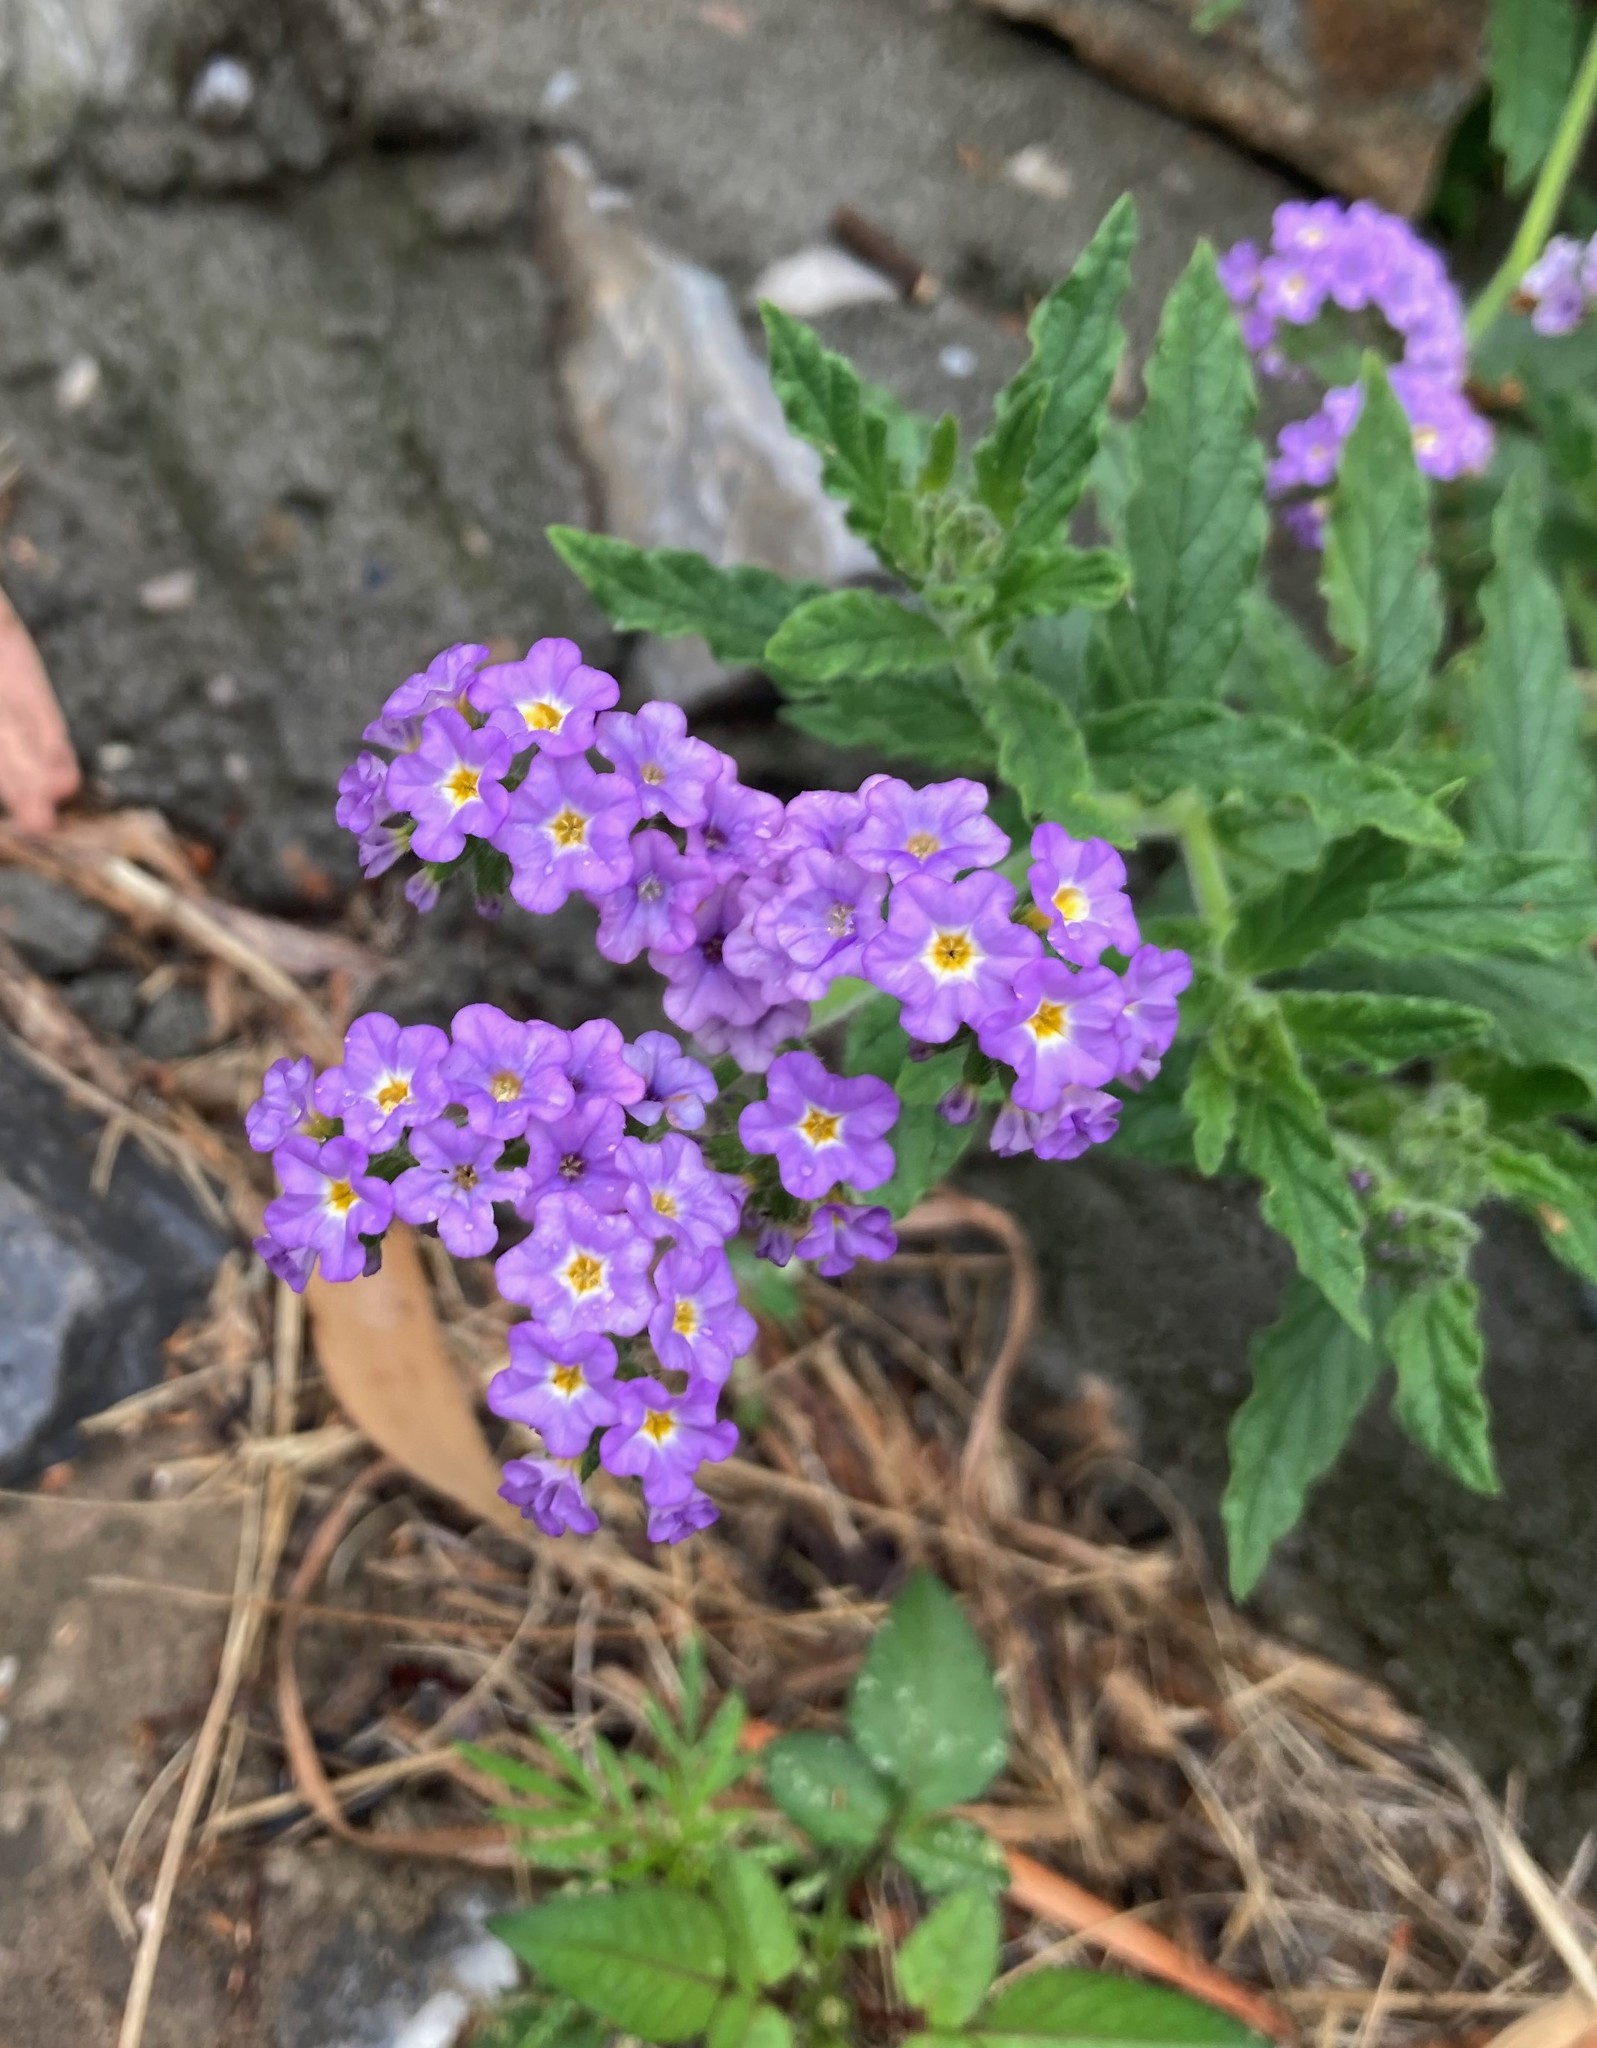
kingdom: Plantae
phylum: Tracheophyta
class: Magnoliopsida
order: Boraginales
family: Heliotropiaceae
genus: Heliotropium
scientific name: Heliotropium amplexicaule
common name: Clasping heliotrope
